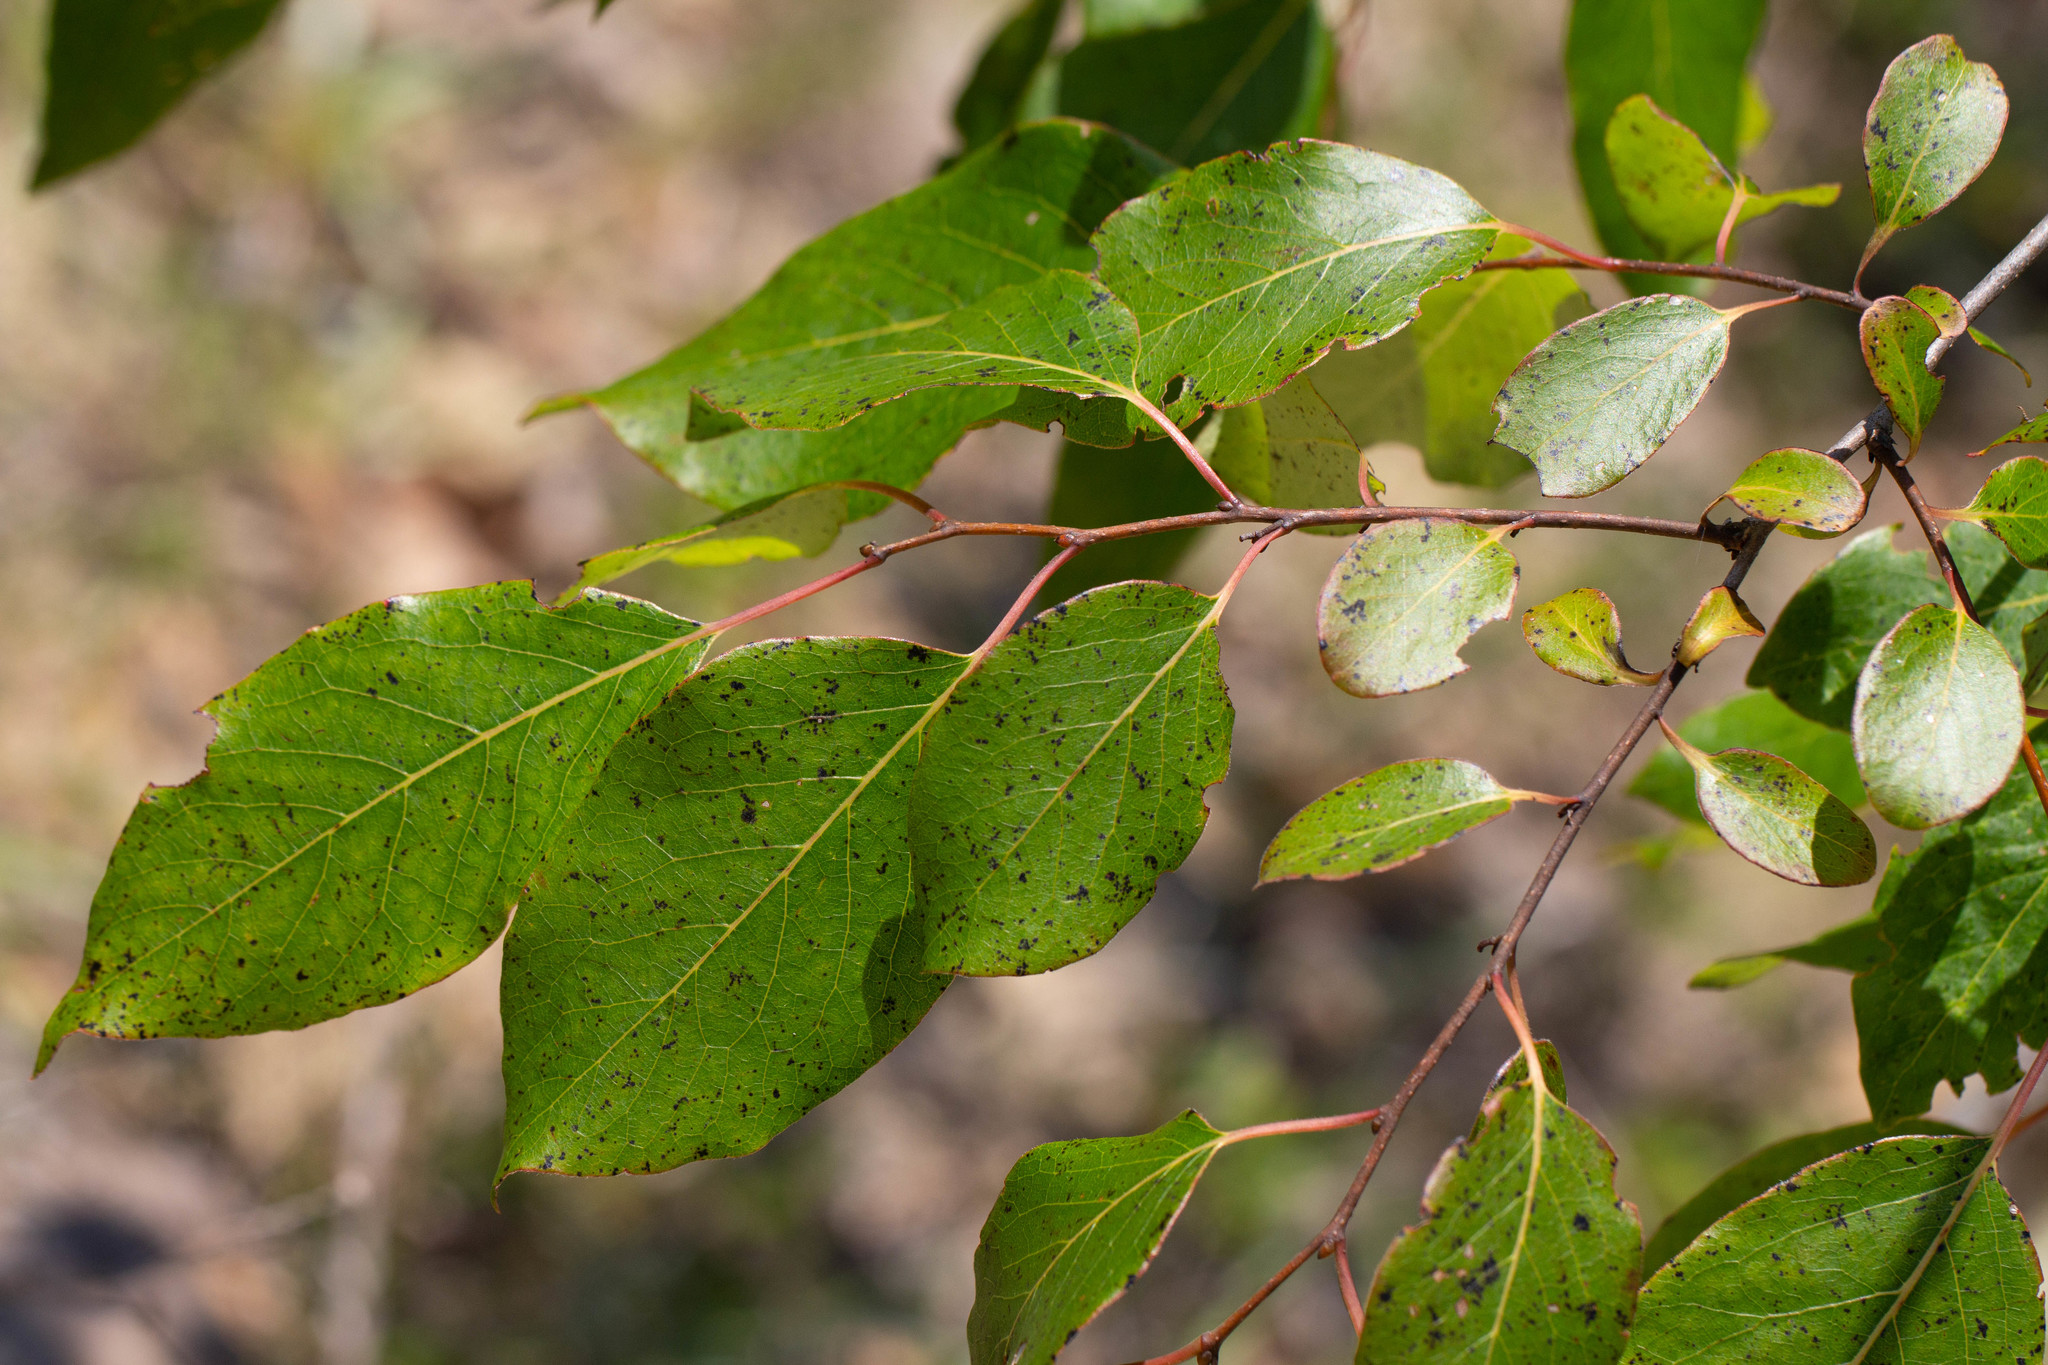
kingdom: Plantae
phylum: Tracheophyta
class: Magnoliopsida
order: Ericales
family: Ebenaceae
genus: Diospyros
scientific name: Diospyros virginiana
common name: Persimmon
